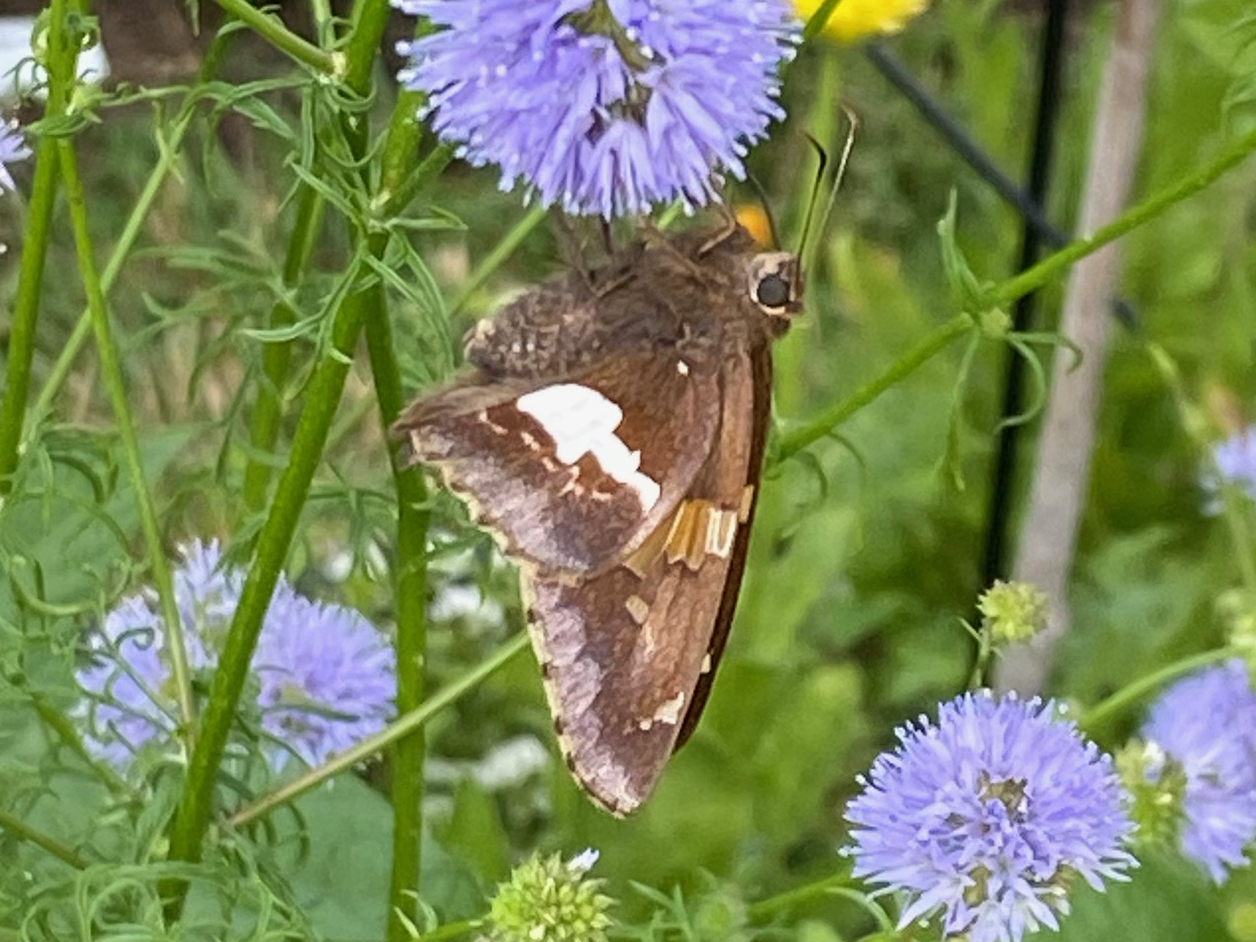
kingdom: Animalia
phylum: Arthropoda
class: Insecta
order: Lepidoptera
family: Hesperiidae
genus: Epargyreus
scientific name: Epargyreus clarus
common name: Silver-spotted skipper
